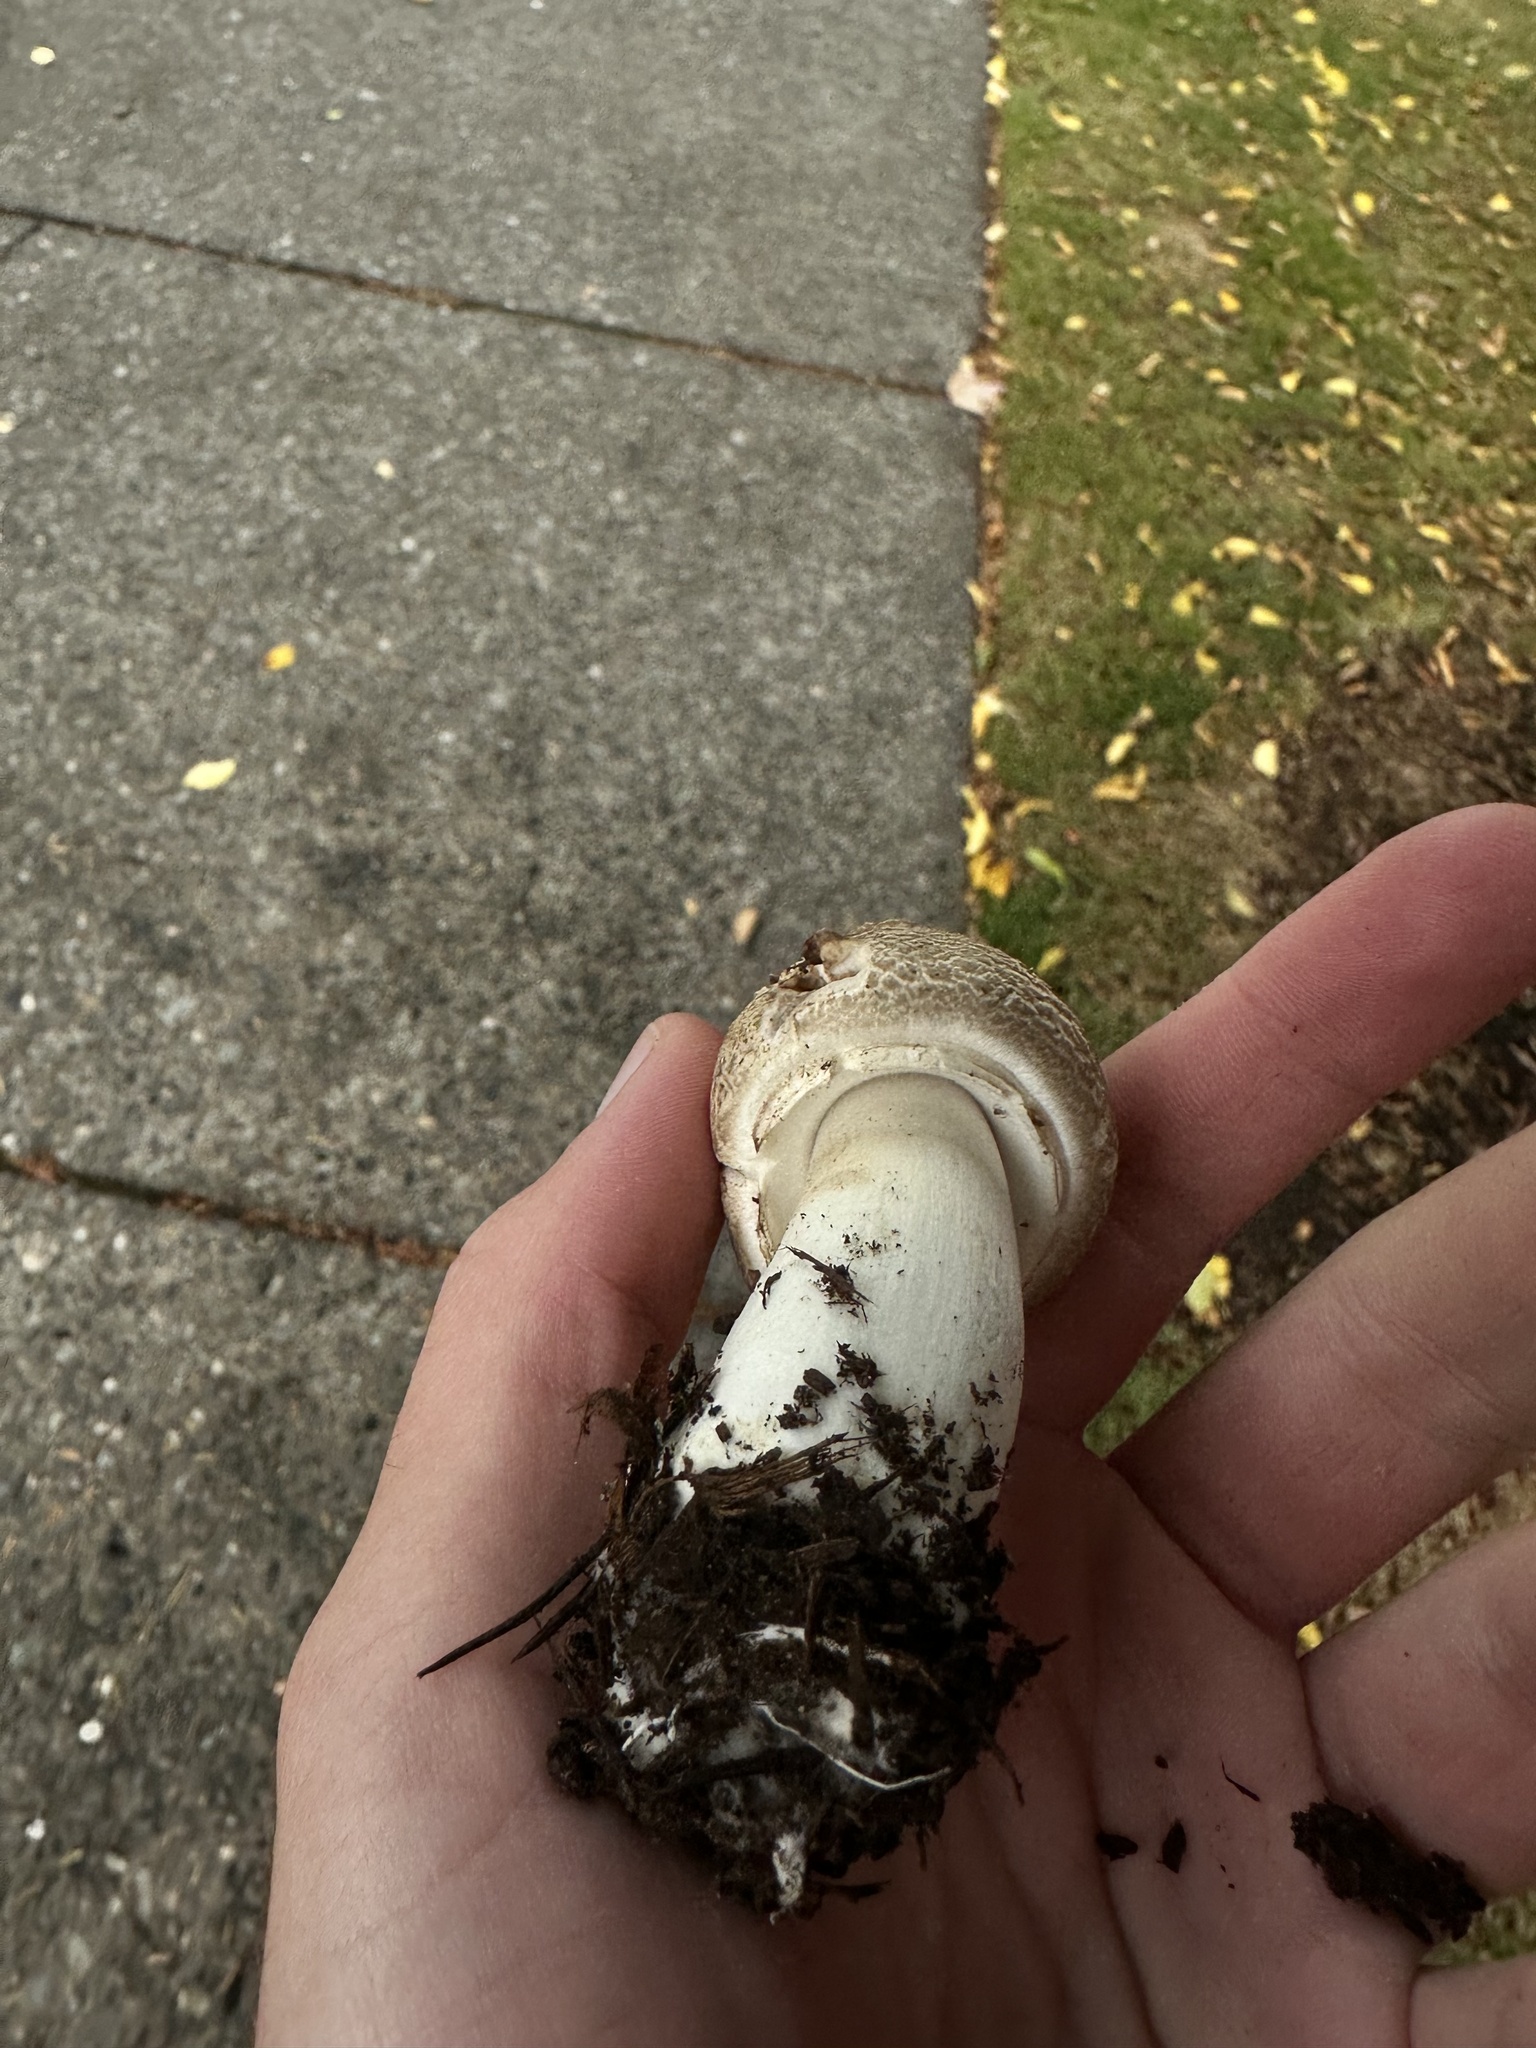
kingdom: Fungi
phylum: Basidiomycota
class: Agaricomycetes
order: Agaricales
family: Agaricaceae
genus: Agaricus
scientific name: Agaricus deardorffensis
